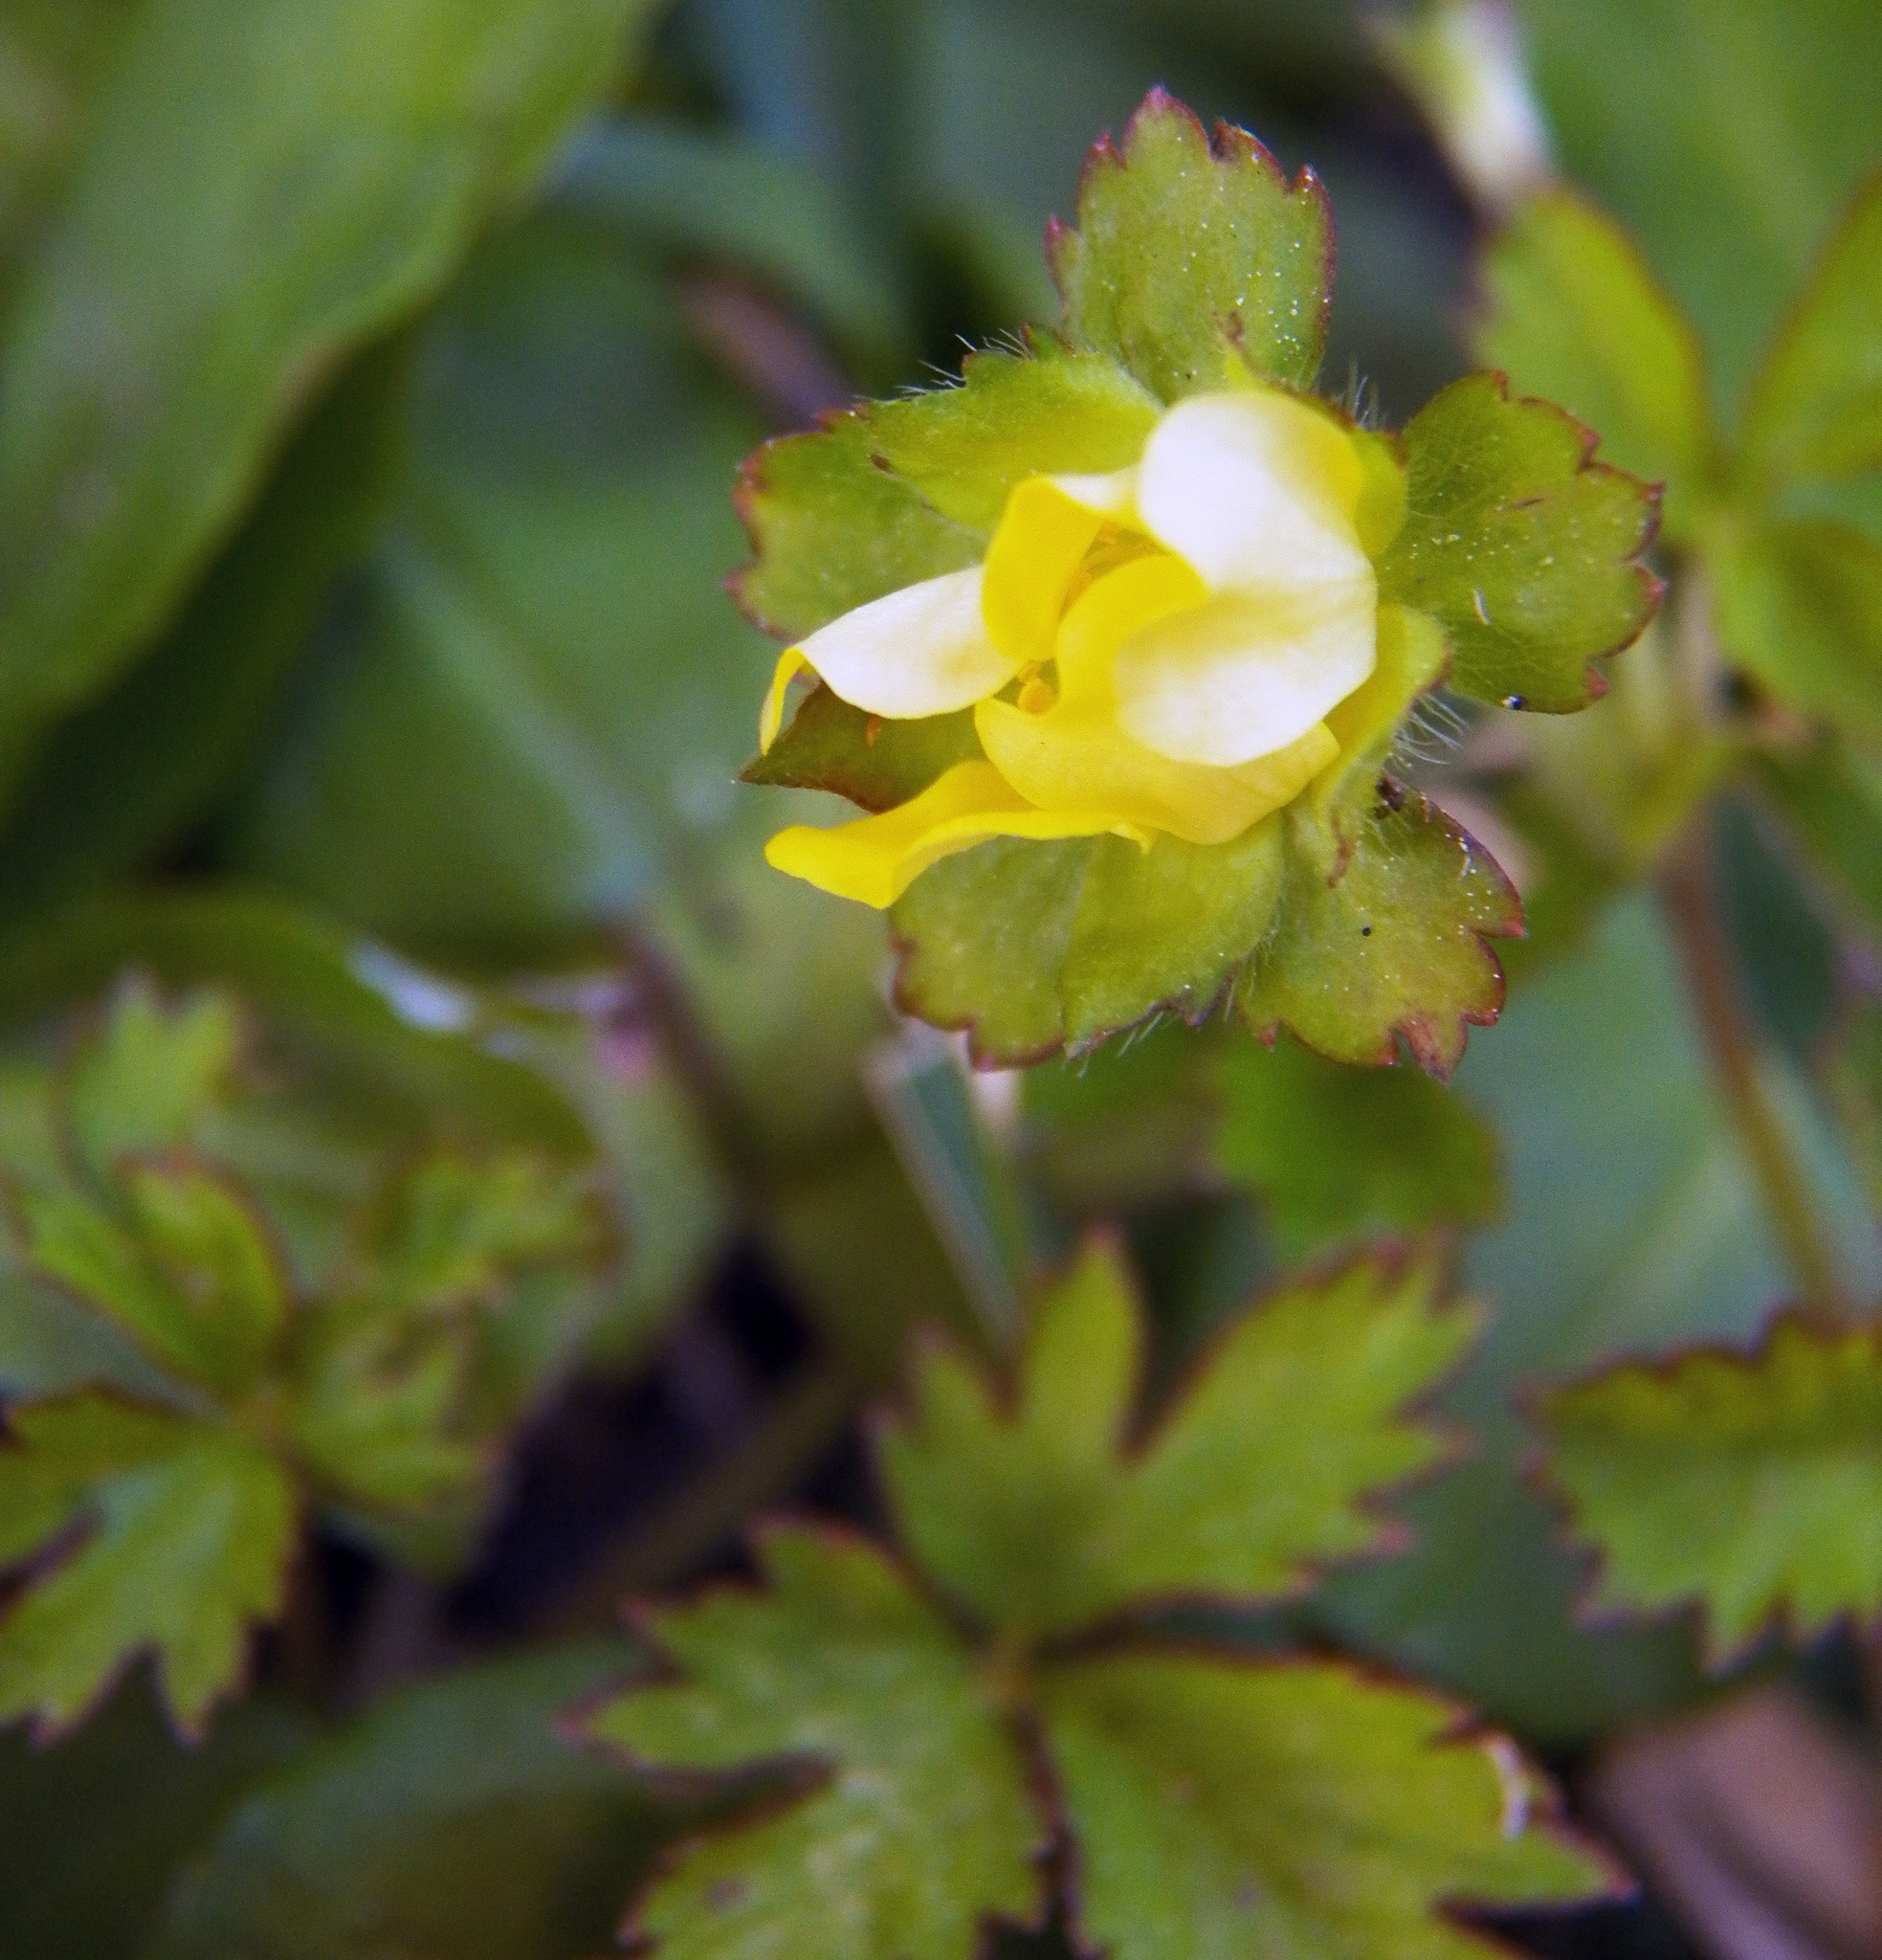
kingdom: Plantae
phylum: Tracheophyta
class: Magnoliopsida
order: Rosales
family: Rosaceae
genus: Potentilla
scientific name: Potentilla indica
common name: Yellow-flowered strawberry
